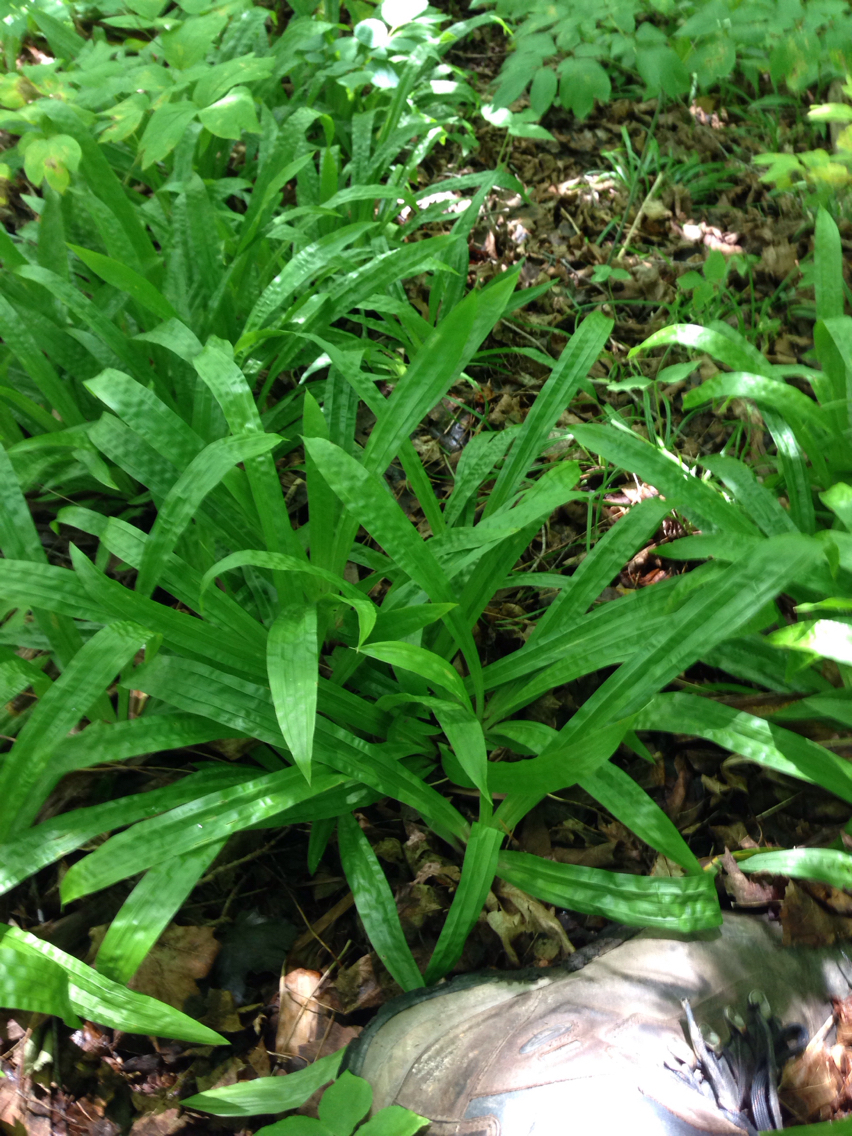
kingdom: Plantae
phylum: Tracheophyta
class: Liliopsida
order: Poales
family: Cyperaceae
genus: Carex
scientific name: Carex plantaginea
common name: Plantain-leaved sedge
